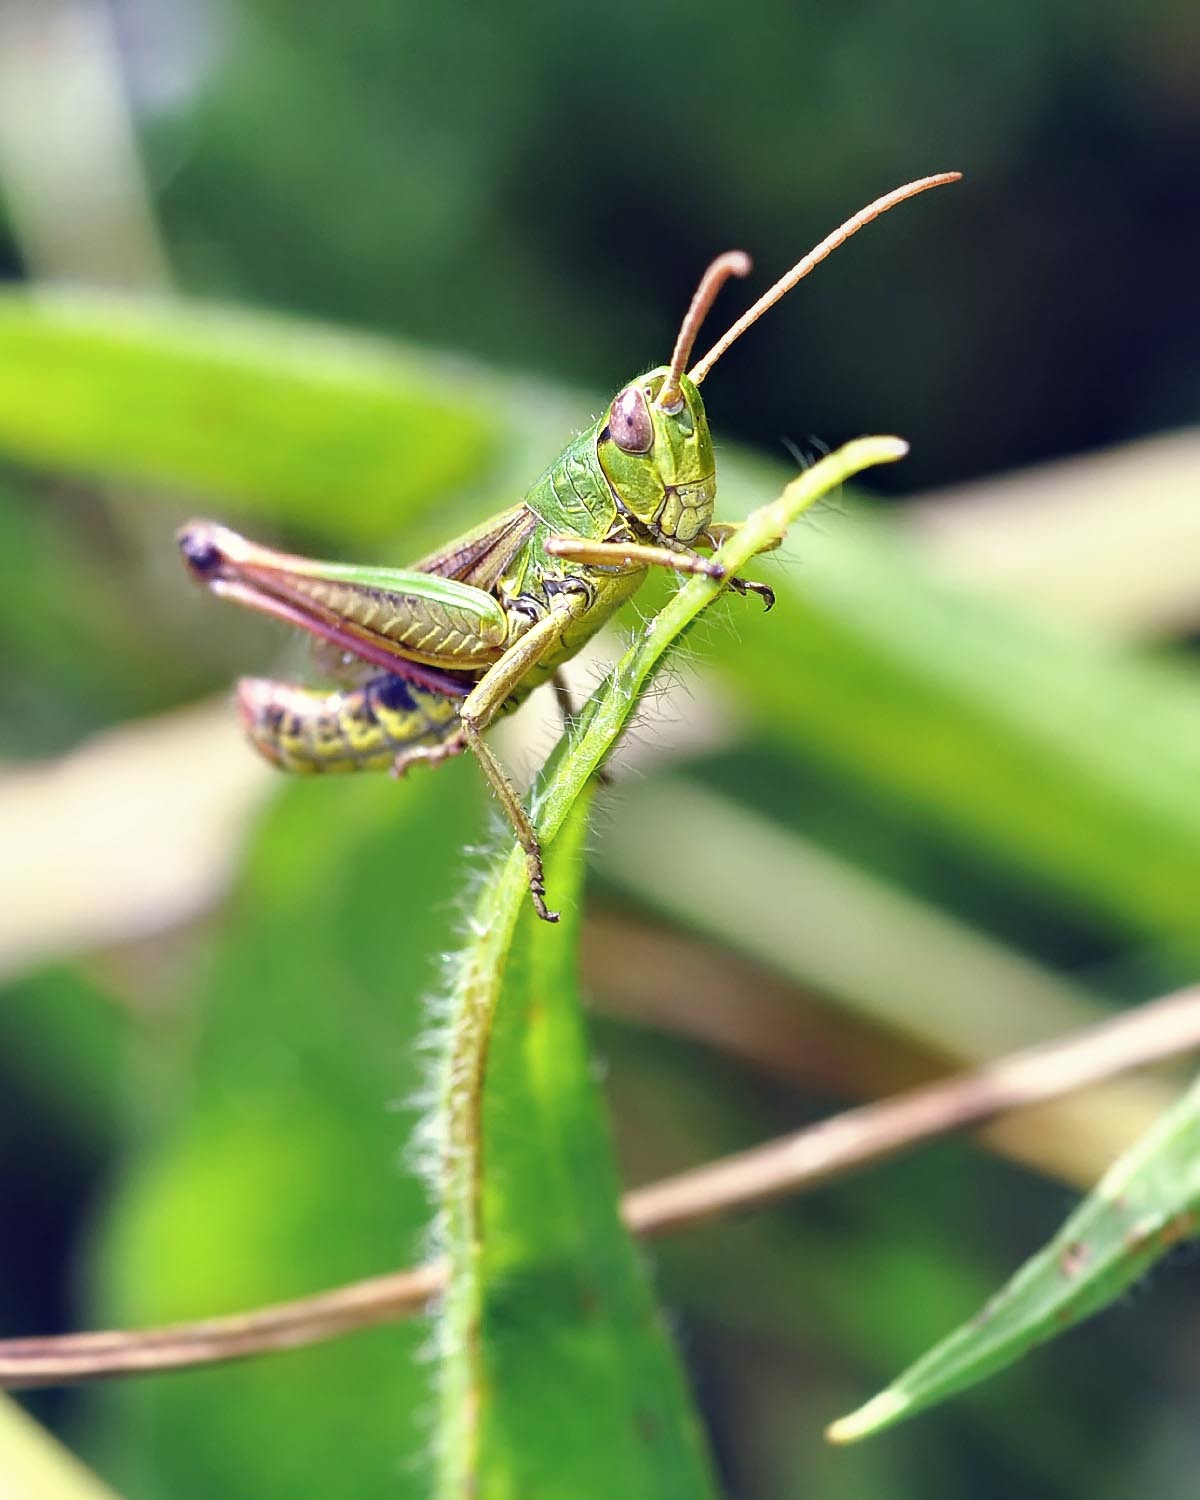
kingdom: Animalia
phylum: Arthropoda
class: Insecta
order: Orthoptera
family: Acrididae
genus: Pseudochorthippus
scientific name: Pseudochorthippus parallelus
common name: Meadow grasshopper
